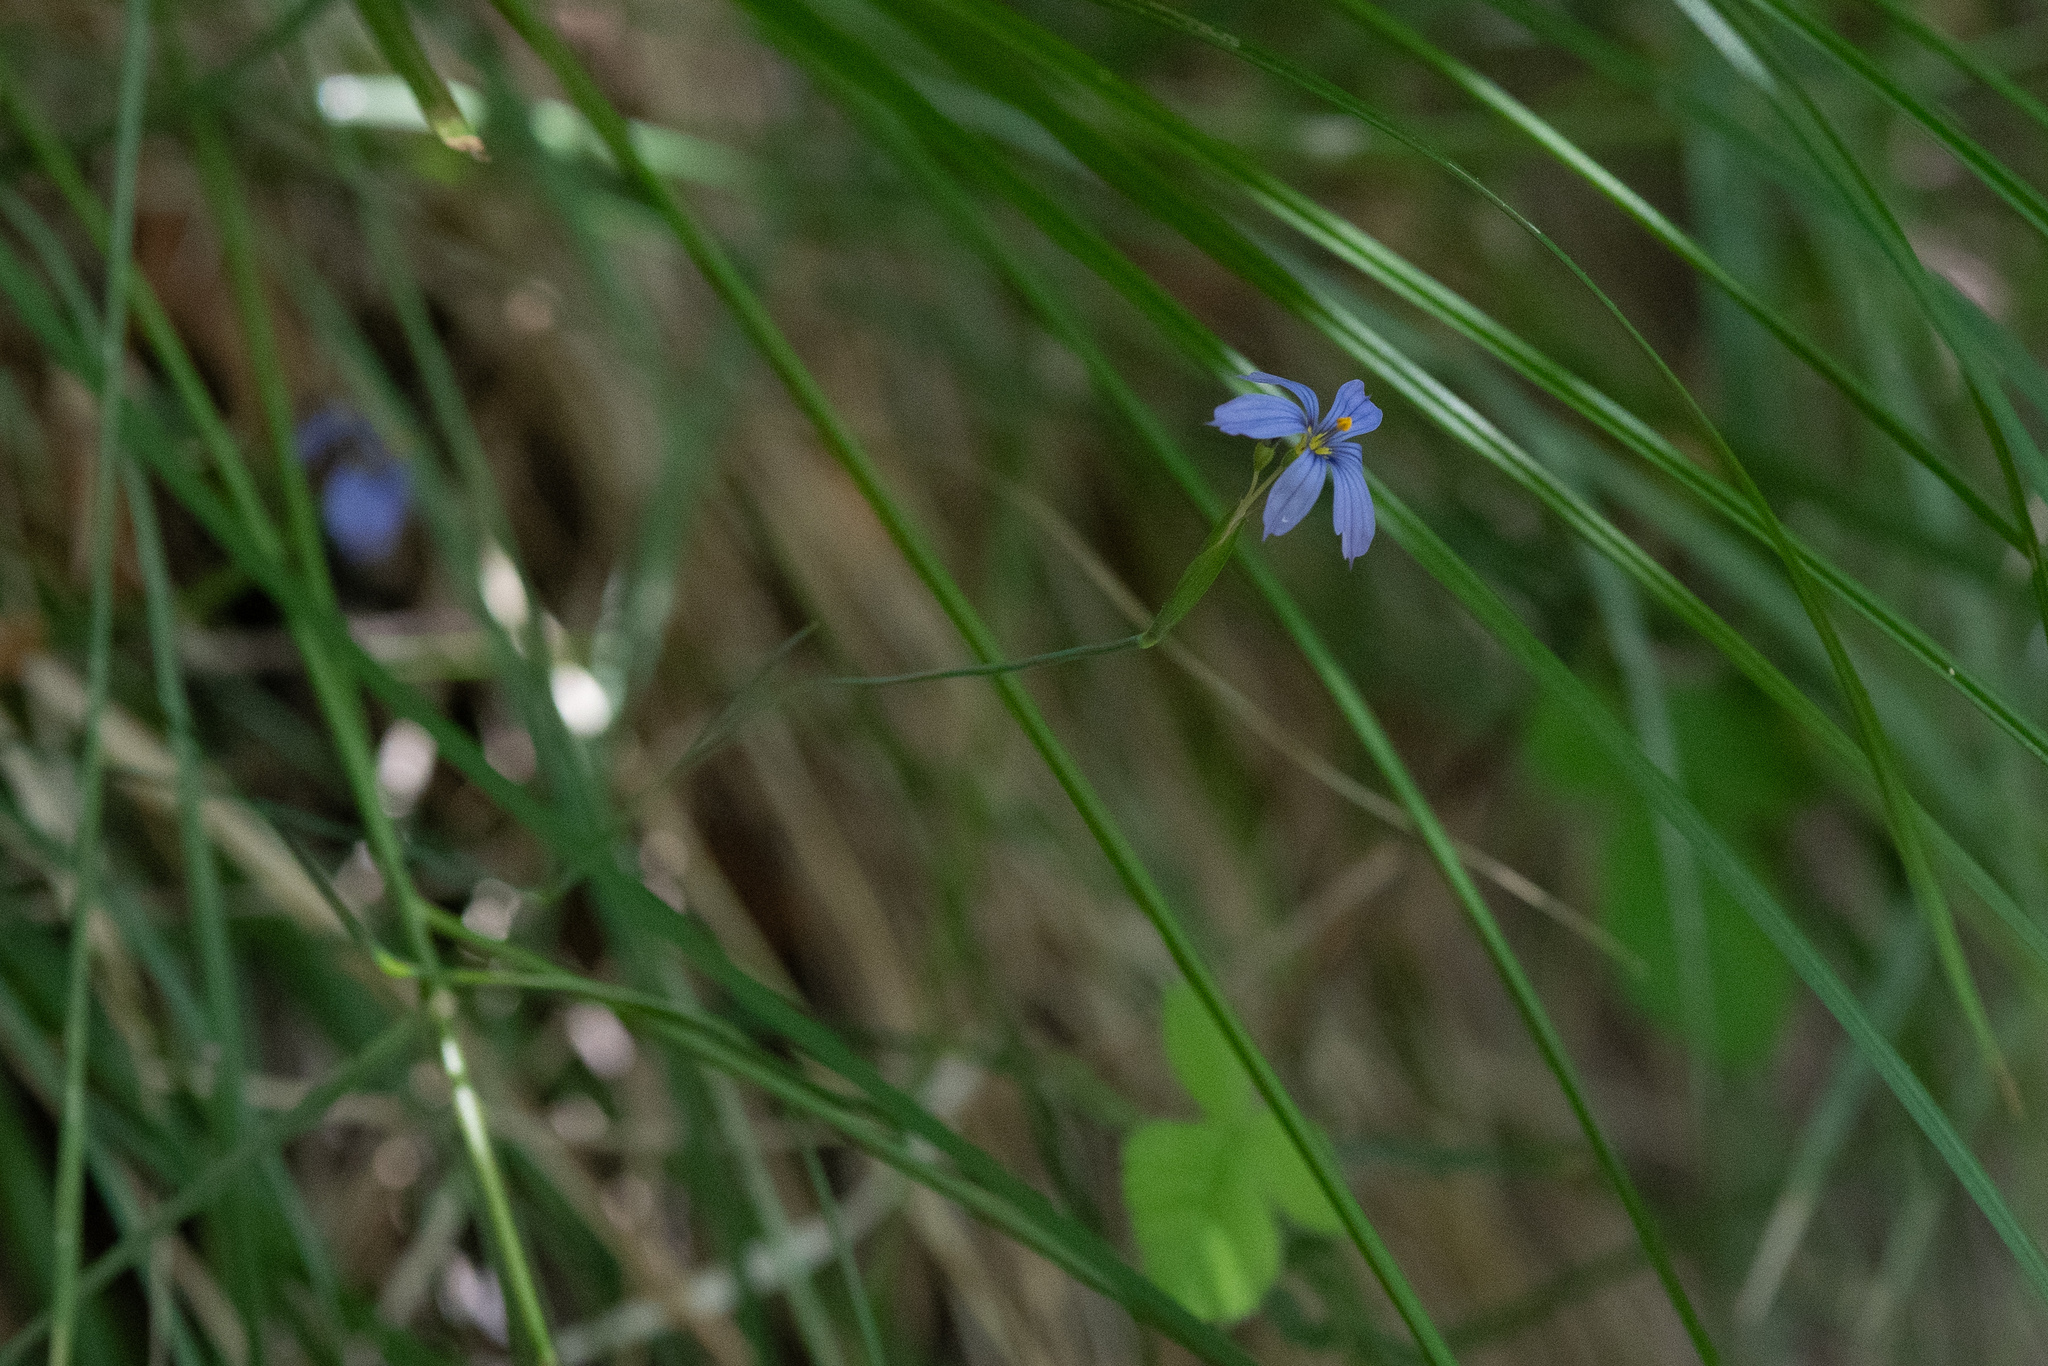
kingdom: Plantae
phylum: Tracheophyta
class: Liliopsida
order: Asparagales
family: Iridaceae
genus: Sisyrinchium
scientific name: Sisyrinchium demissum
